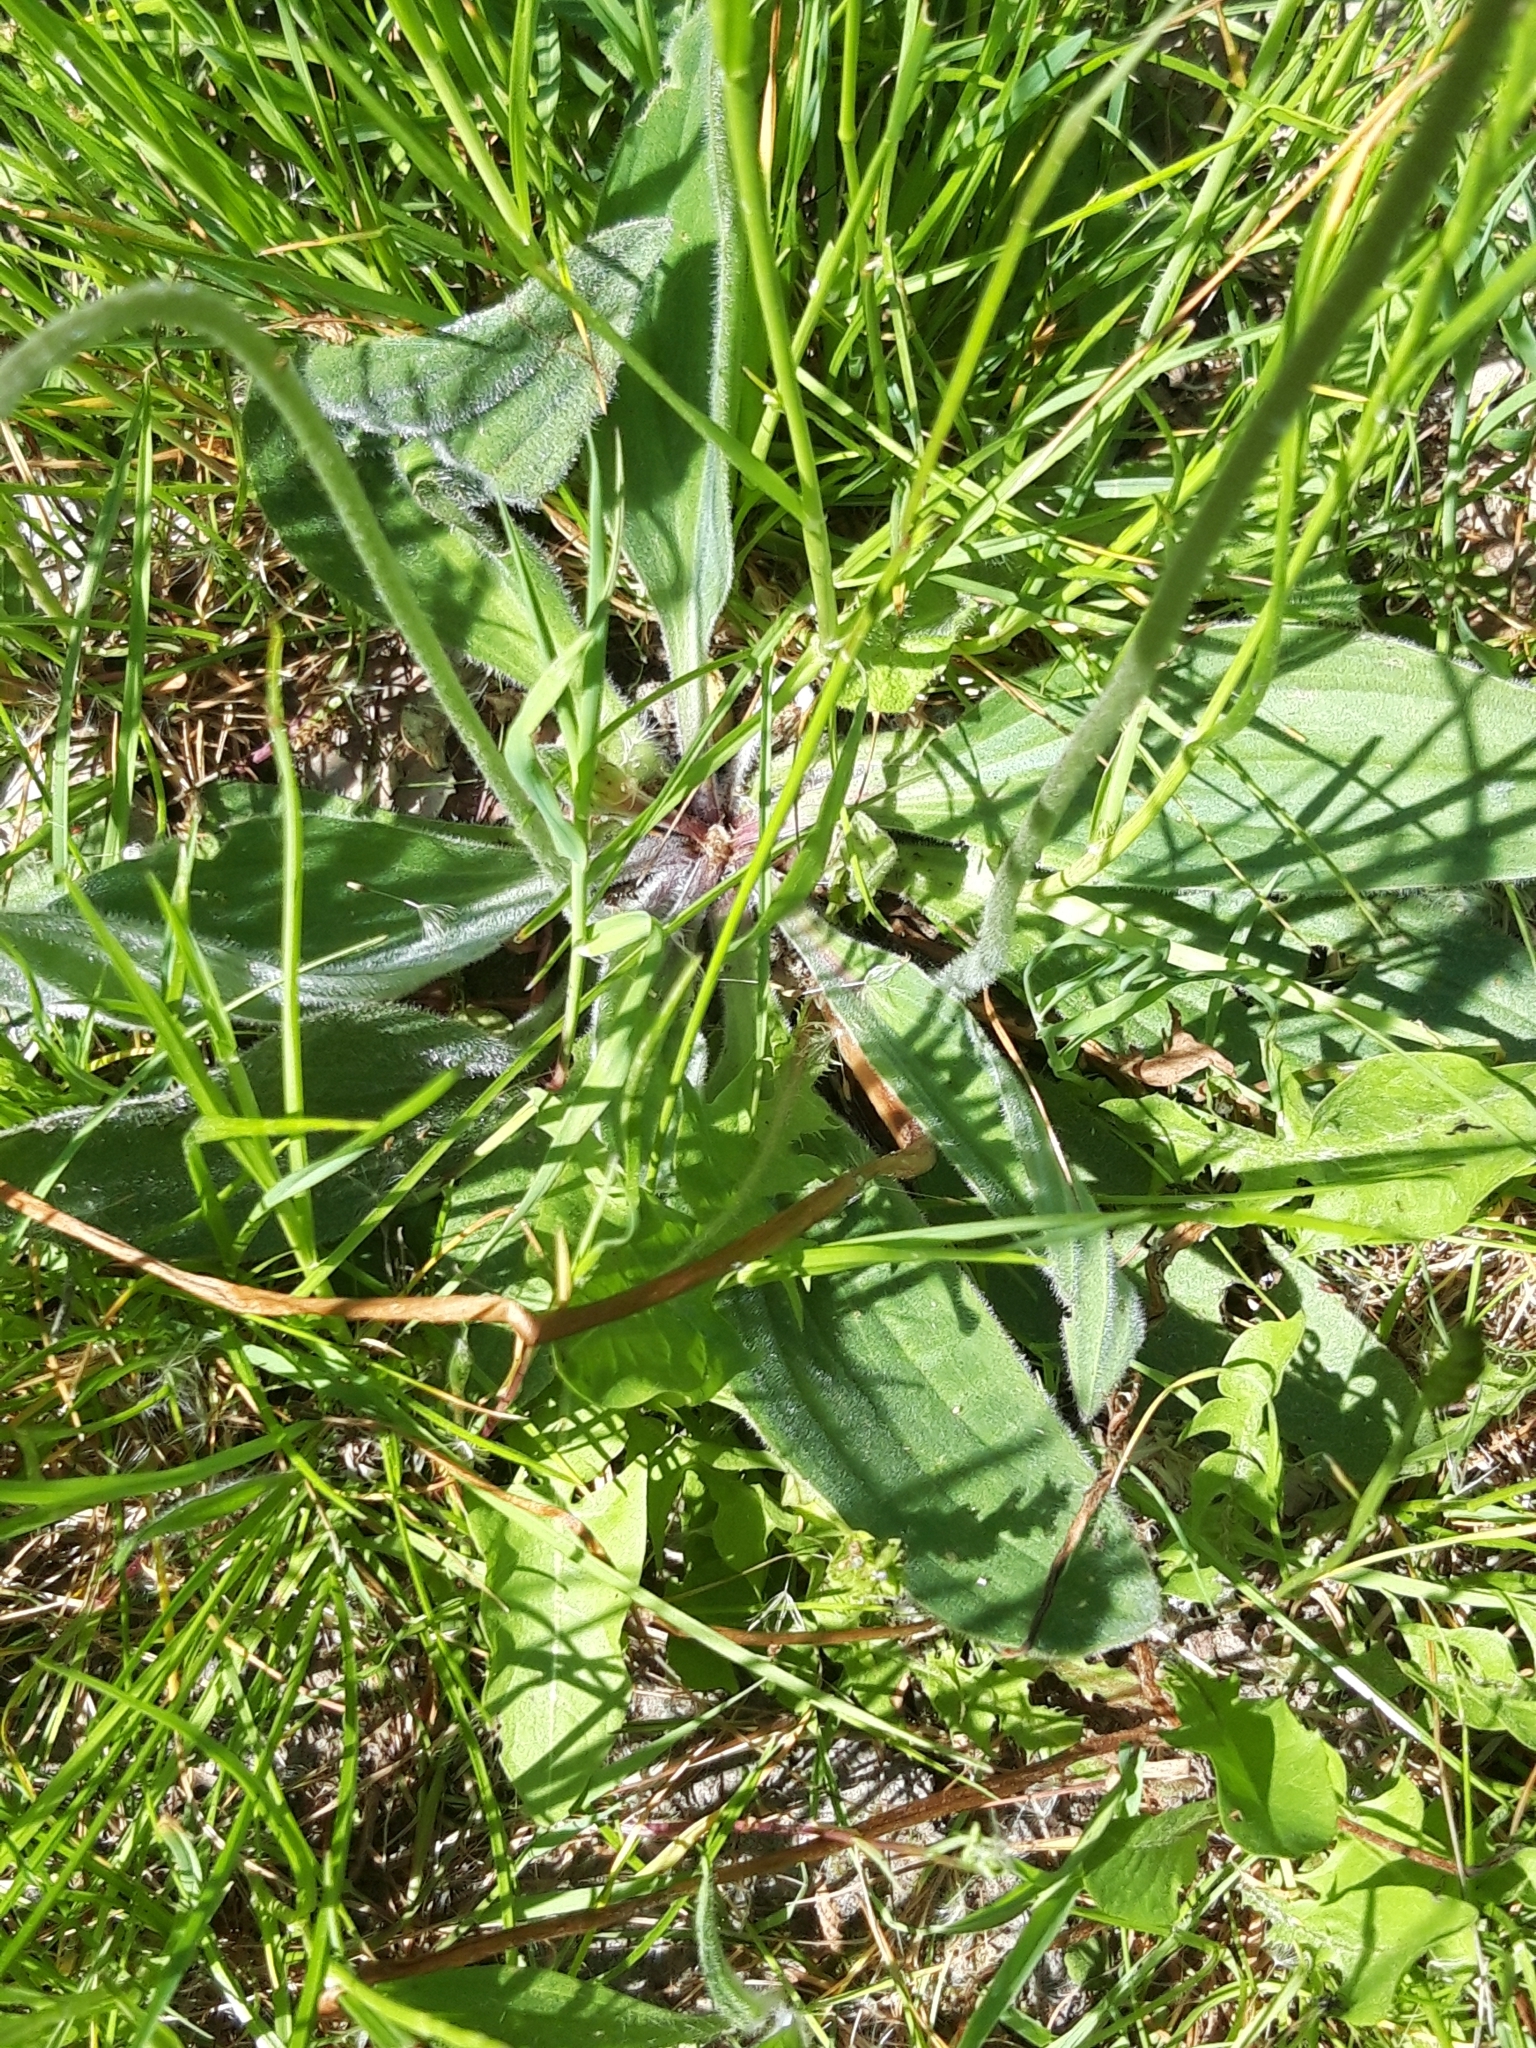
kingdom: Plantae
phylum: Tracheophyta
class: Magnoliopsida
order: Lamiales
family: Plantaginaceae
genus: Plantago
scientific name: Plantago media
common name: Hoary plantain
